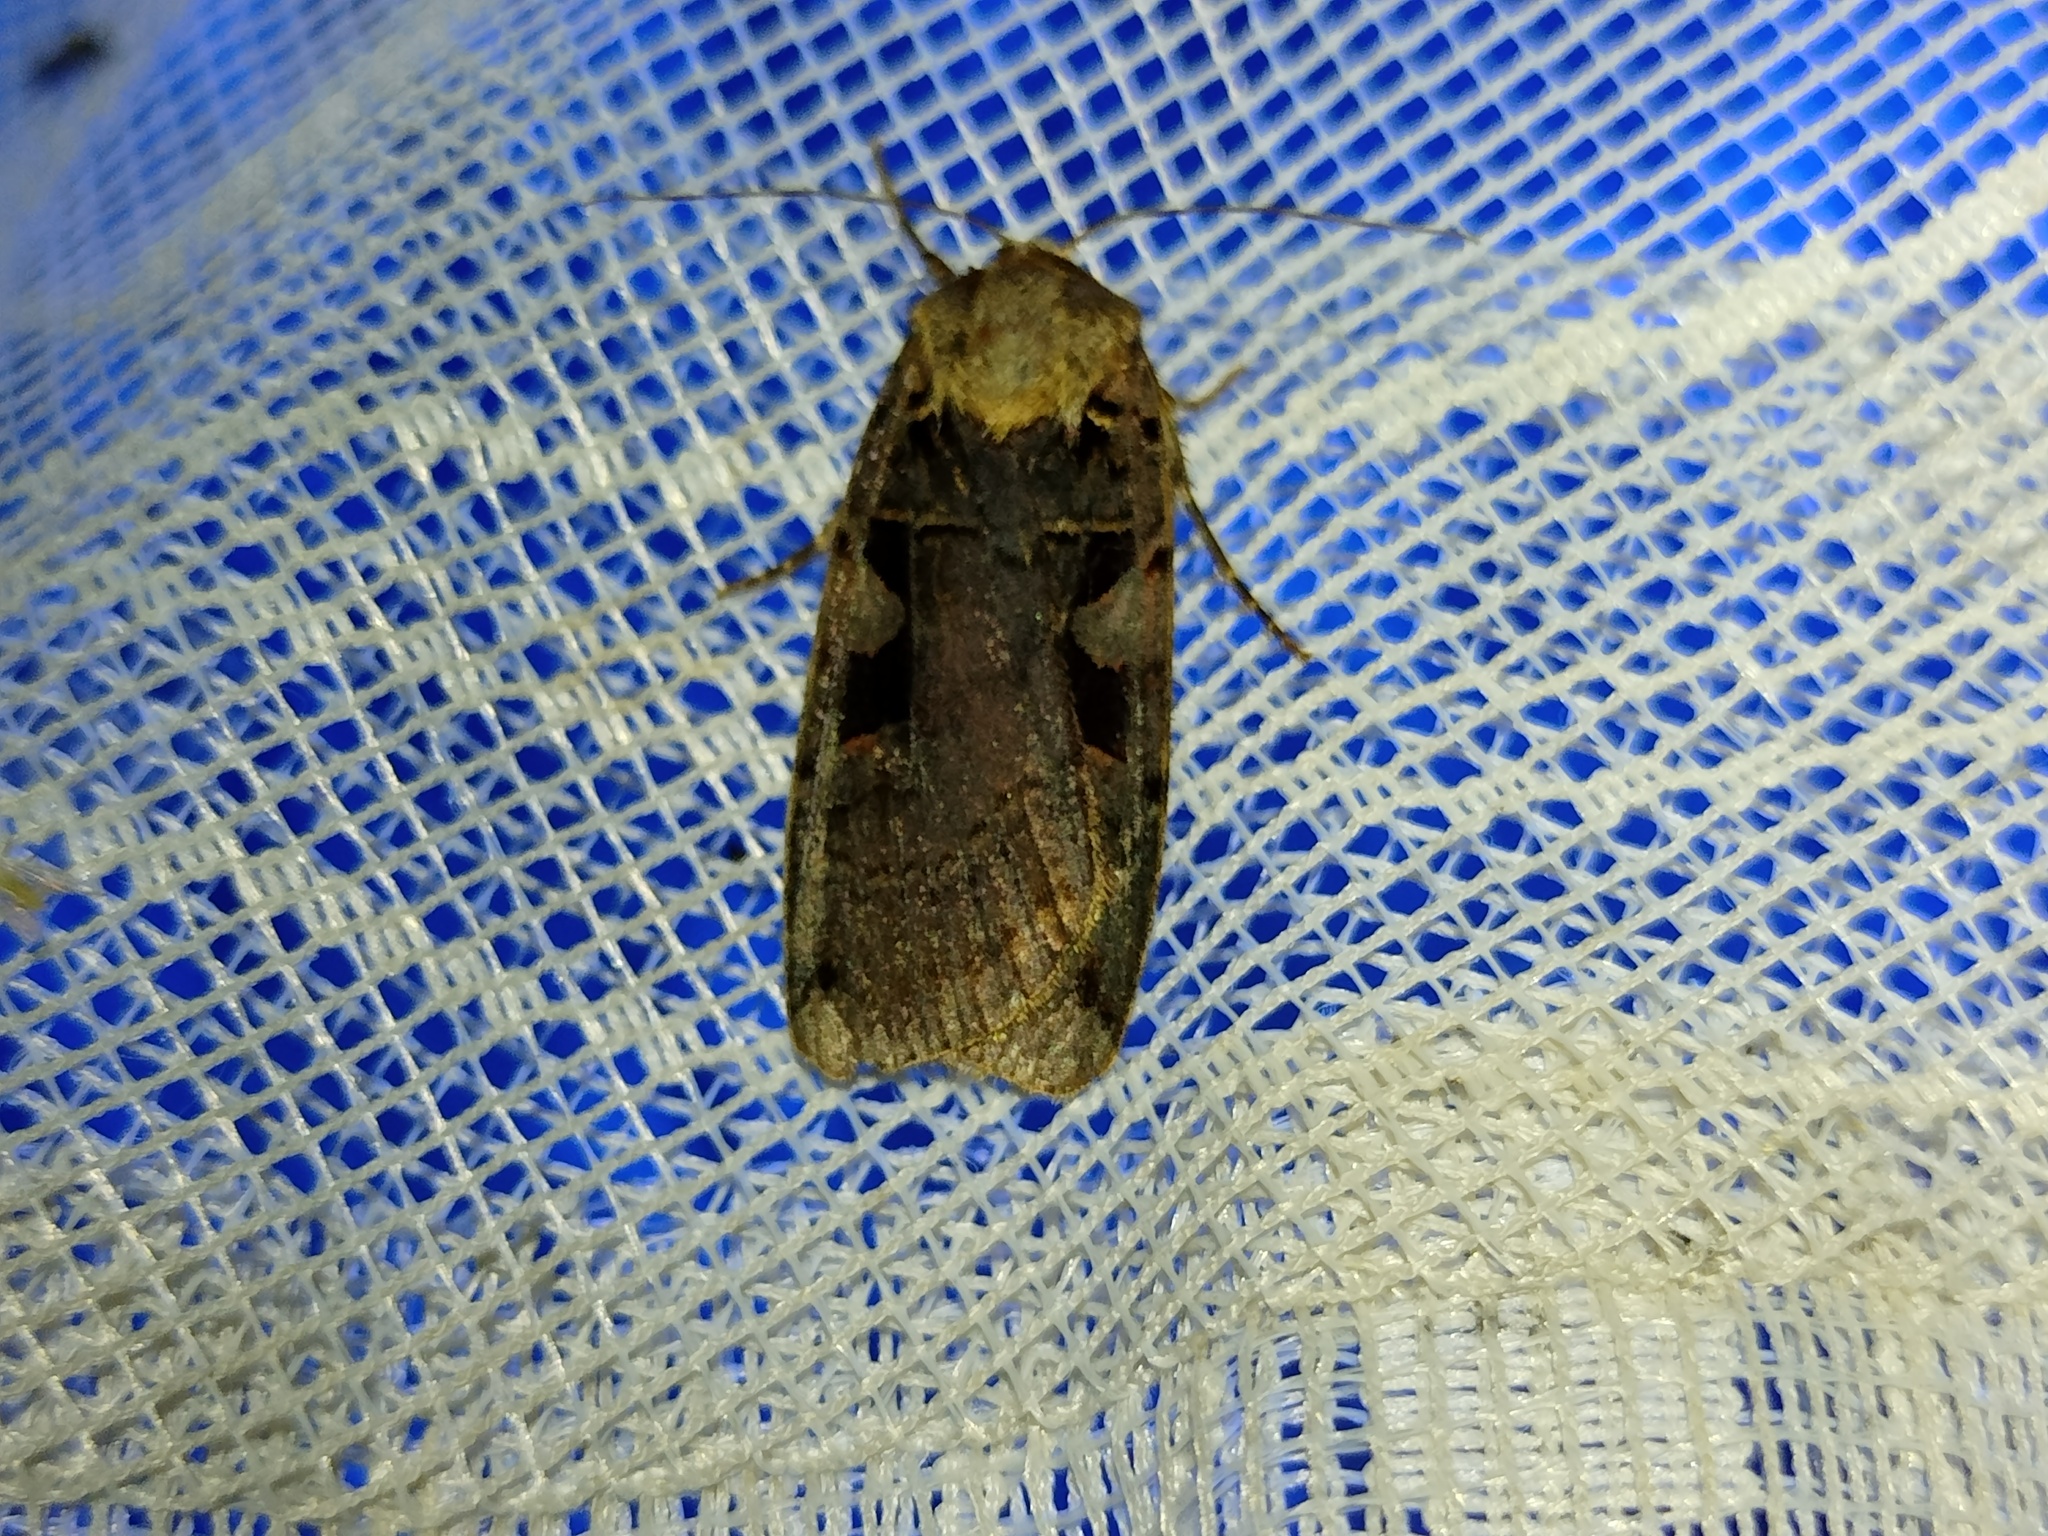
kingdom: Animalia
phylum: Arthropoda
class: Insecta
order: Lepidoptera
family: Noctuidae
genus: Xestia
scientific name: Xestia ditrapezium
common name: Triple-spotted clay
